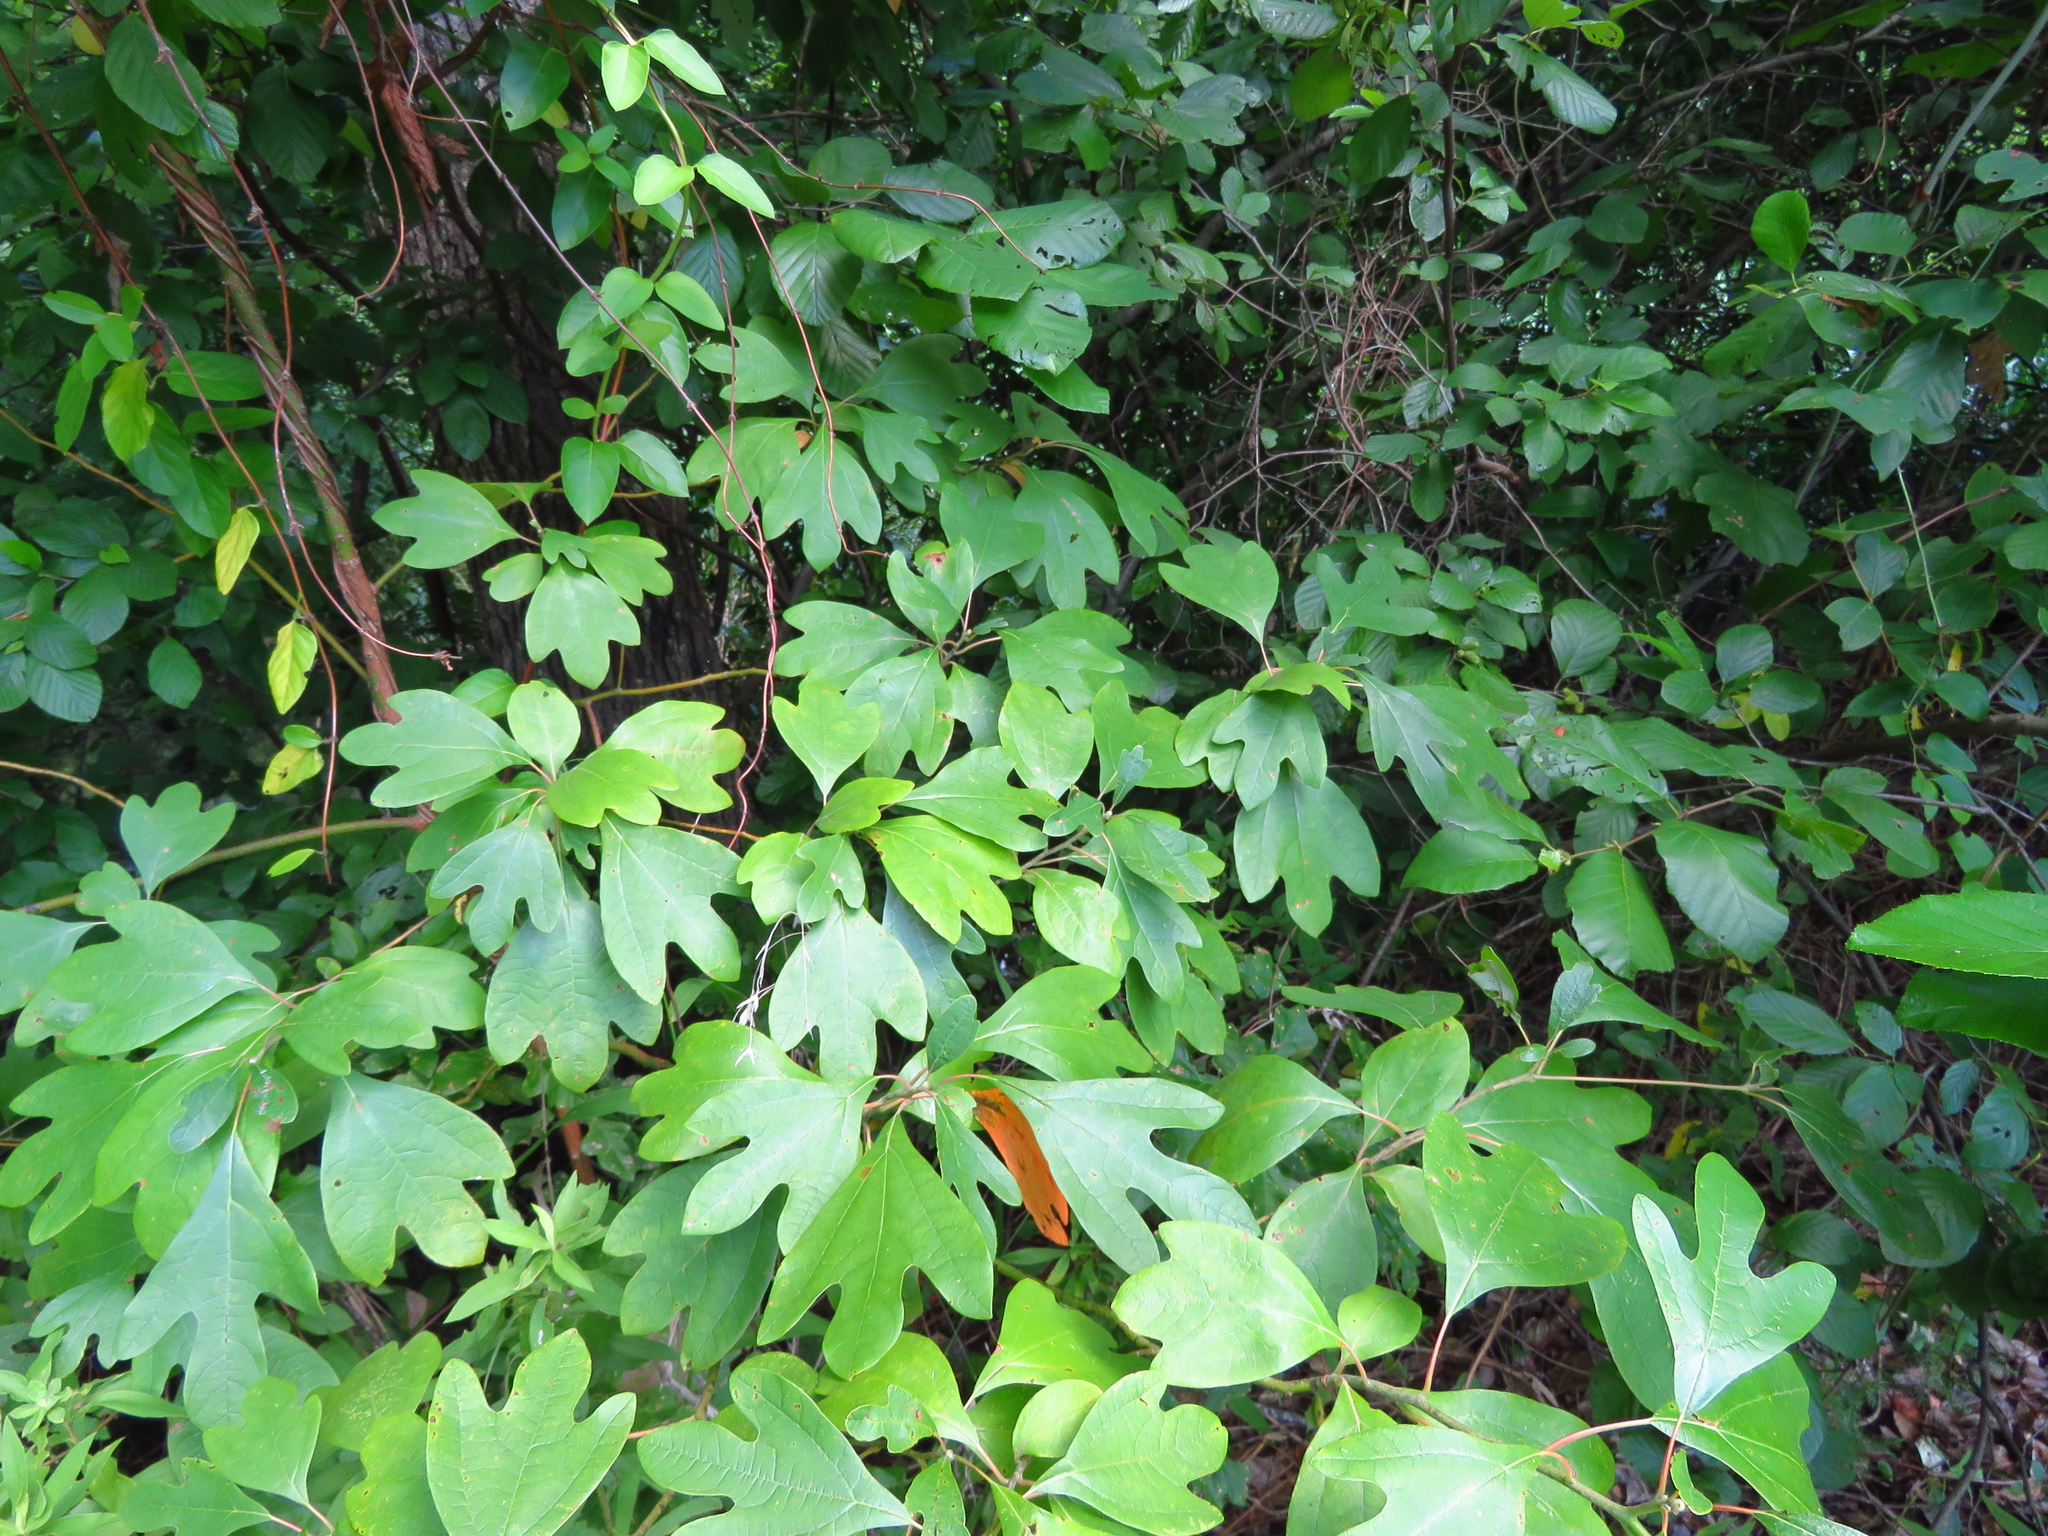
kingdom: Plantae
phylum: Tracheophyta
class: Magnoliopsida
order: Laurales
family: Lauraceae
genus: Sassafras
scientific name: Sassafras albidum
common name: Sassafras
